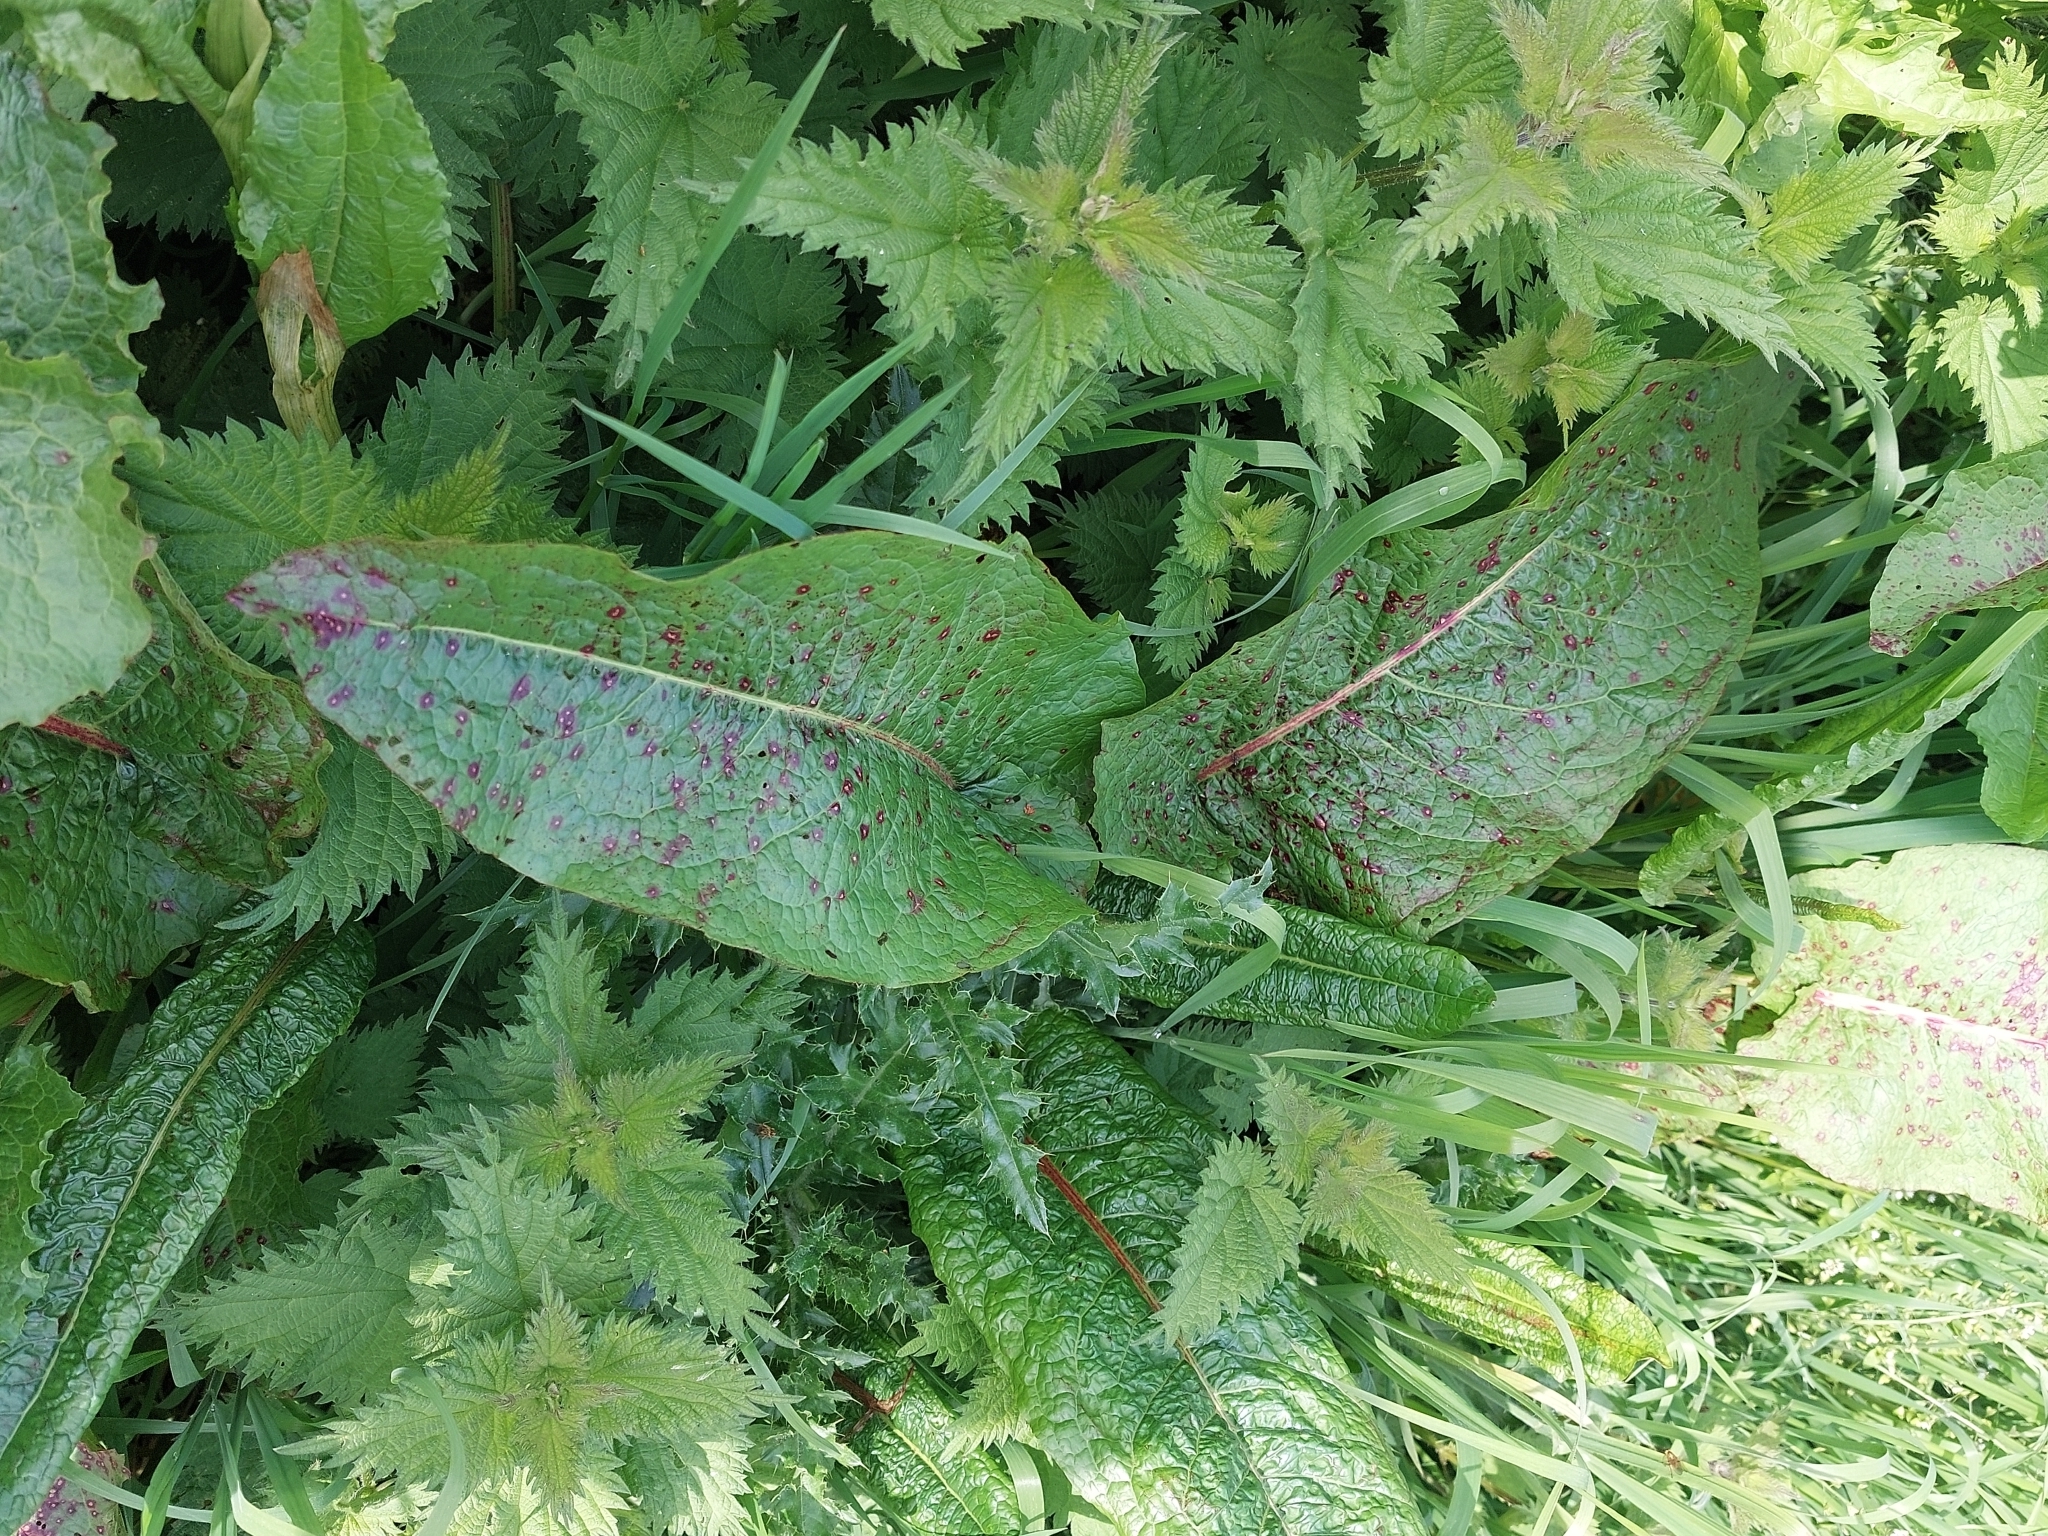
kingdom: Plantae
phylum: Tracheophyta
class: Magnoliopsida
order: Caryophyllales
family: Polygonaceae
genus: Rumex
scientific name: Rumex obtusifolius
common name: Bitter dock
